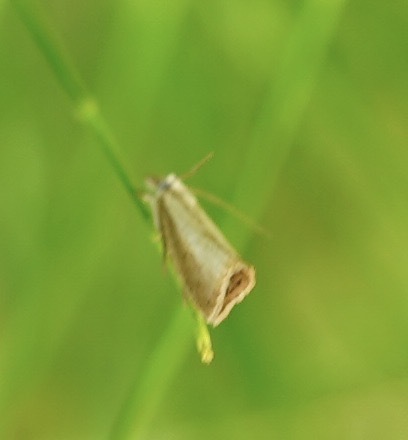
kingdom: Animalia
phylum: Arthropoda
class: Insecta
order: Lepidoptera
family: Crambidae
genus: Agriphila
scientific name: Agriphila straminella
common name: Straw grass-veneer
